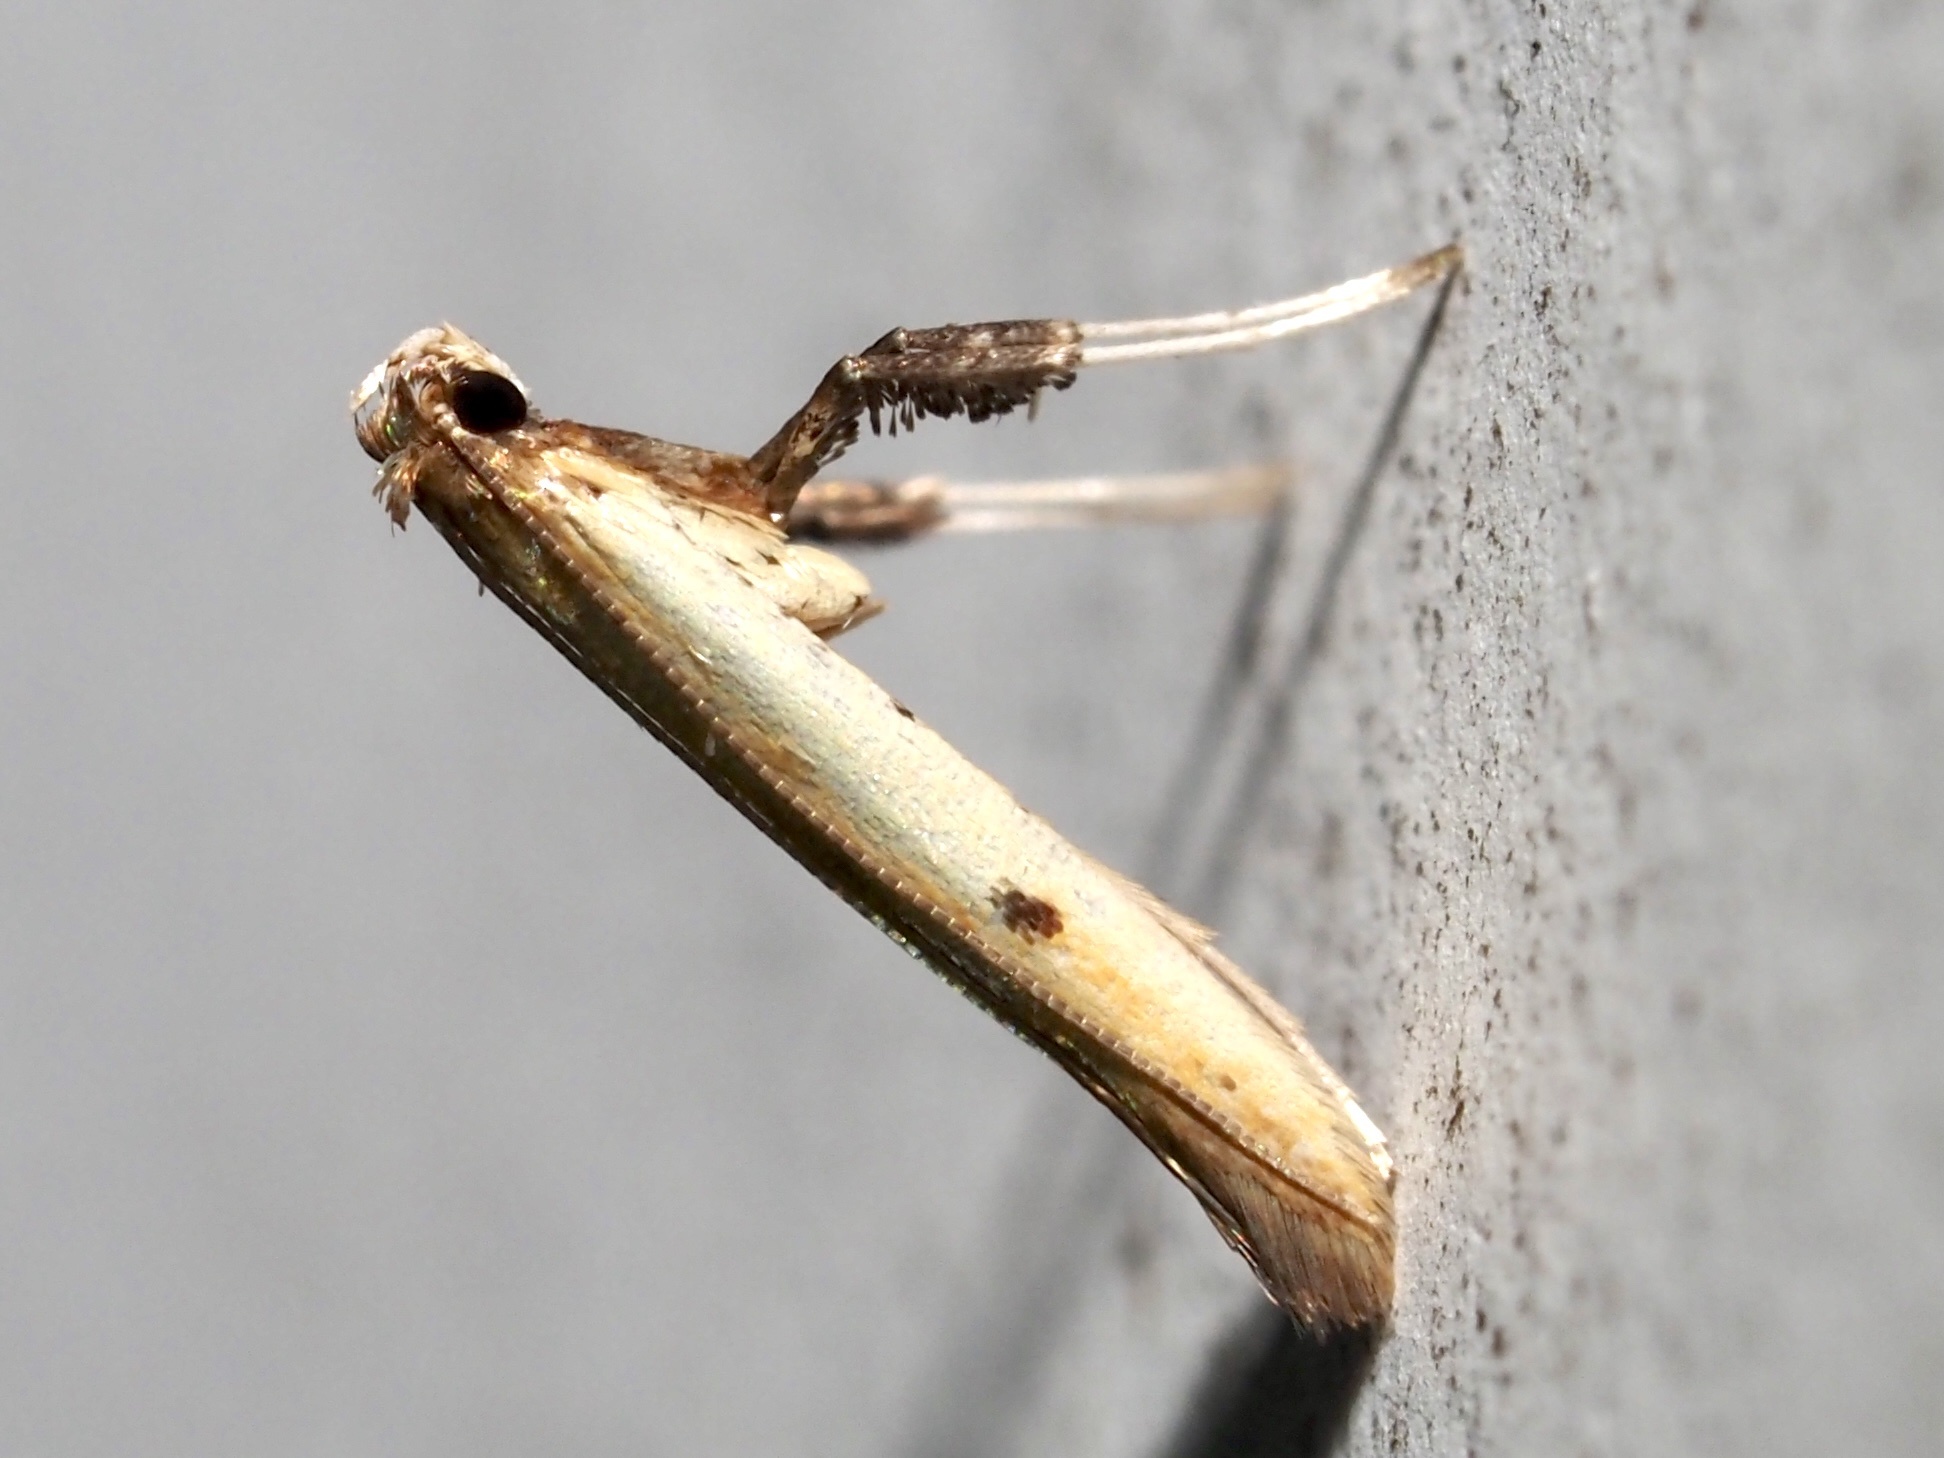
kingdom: Animalia
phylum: Arthropoda
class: Insecta
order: Lepidoptera
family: Gracillariidae
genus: Caloptilia
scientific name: Caloptilia violacella
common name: Tick-trefoil caloptilia moth
